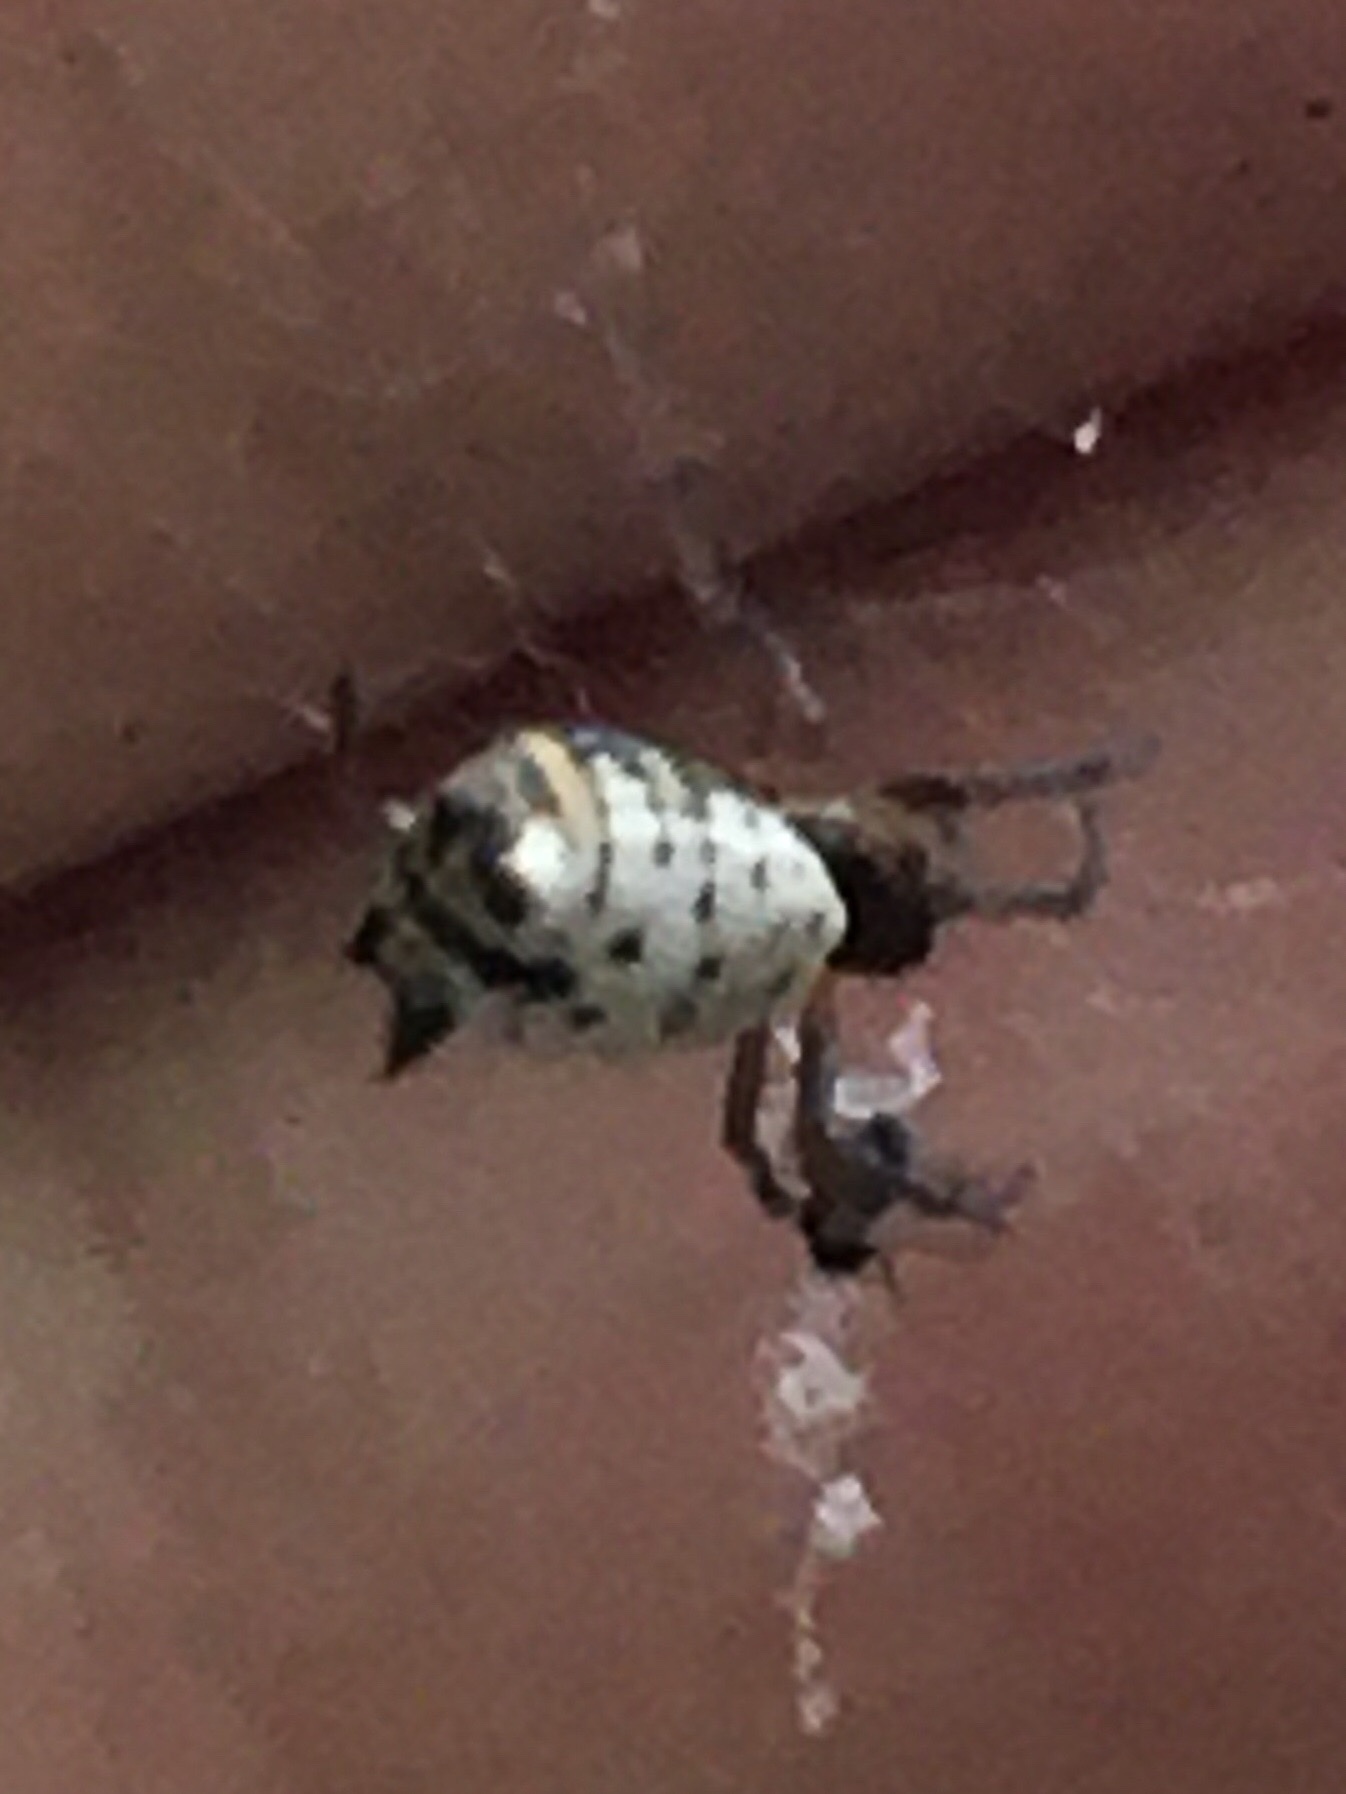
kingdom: Animalia
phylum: Arthropoda
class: Arachnida
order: Araneae
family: Araneidae
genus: Micrathena
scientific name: Micrathena mitrata
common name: Orb weavers
